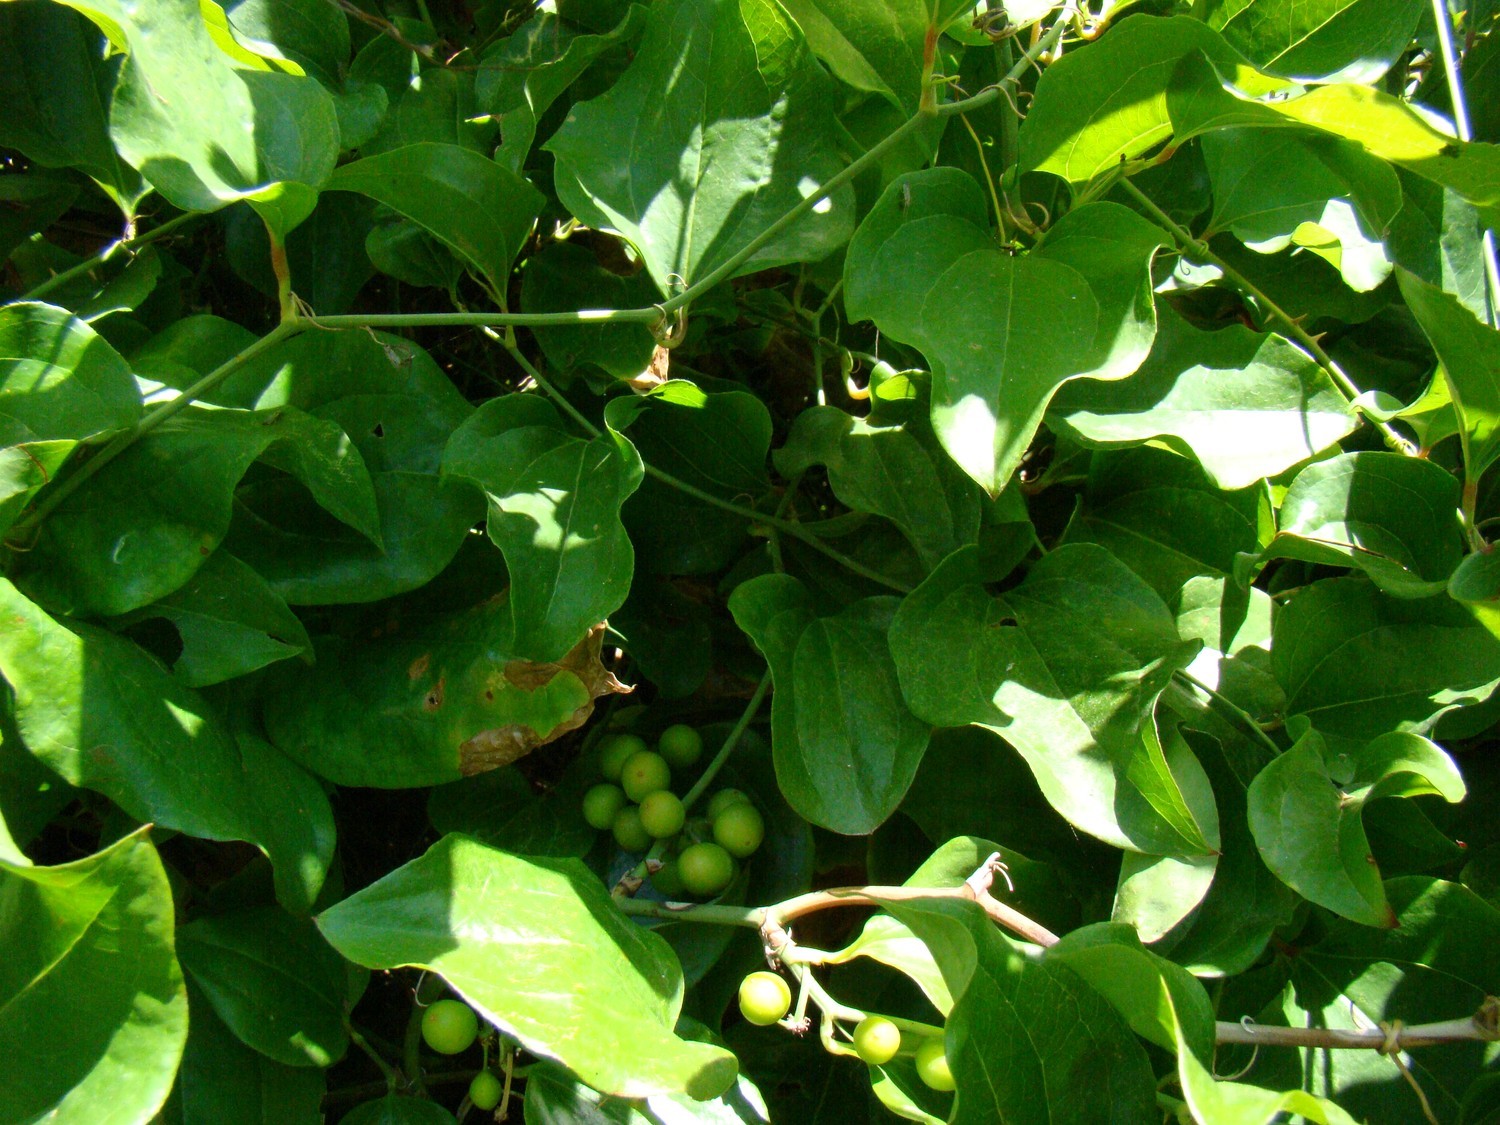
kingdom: Plantae
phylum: Tracheophyta
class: Liliopsida
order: Liliales
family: Smilacaceae
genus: Smilax
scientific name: Smilax excelsa
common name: Larger smilax
